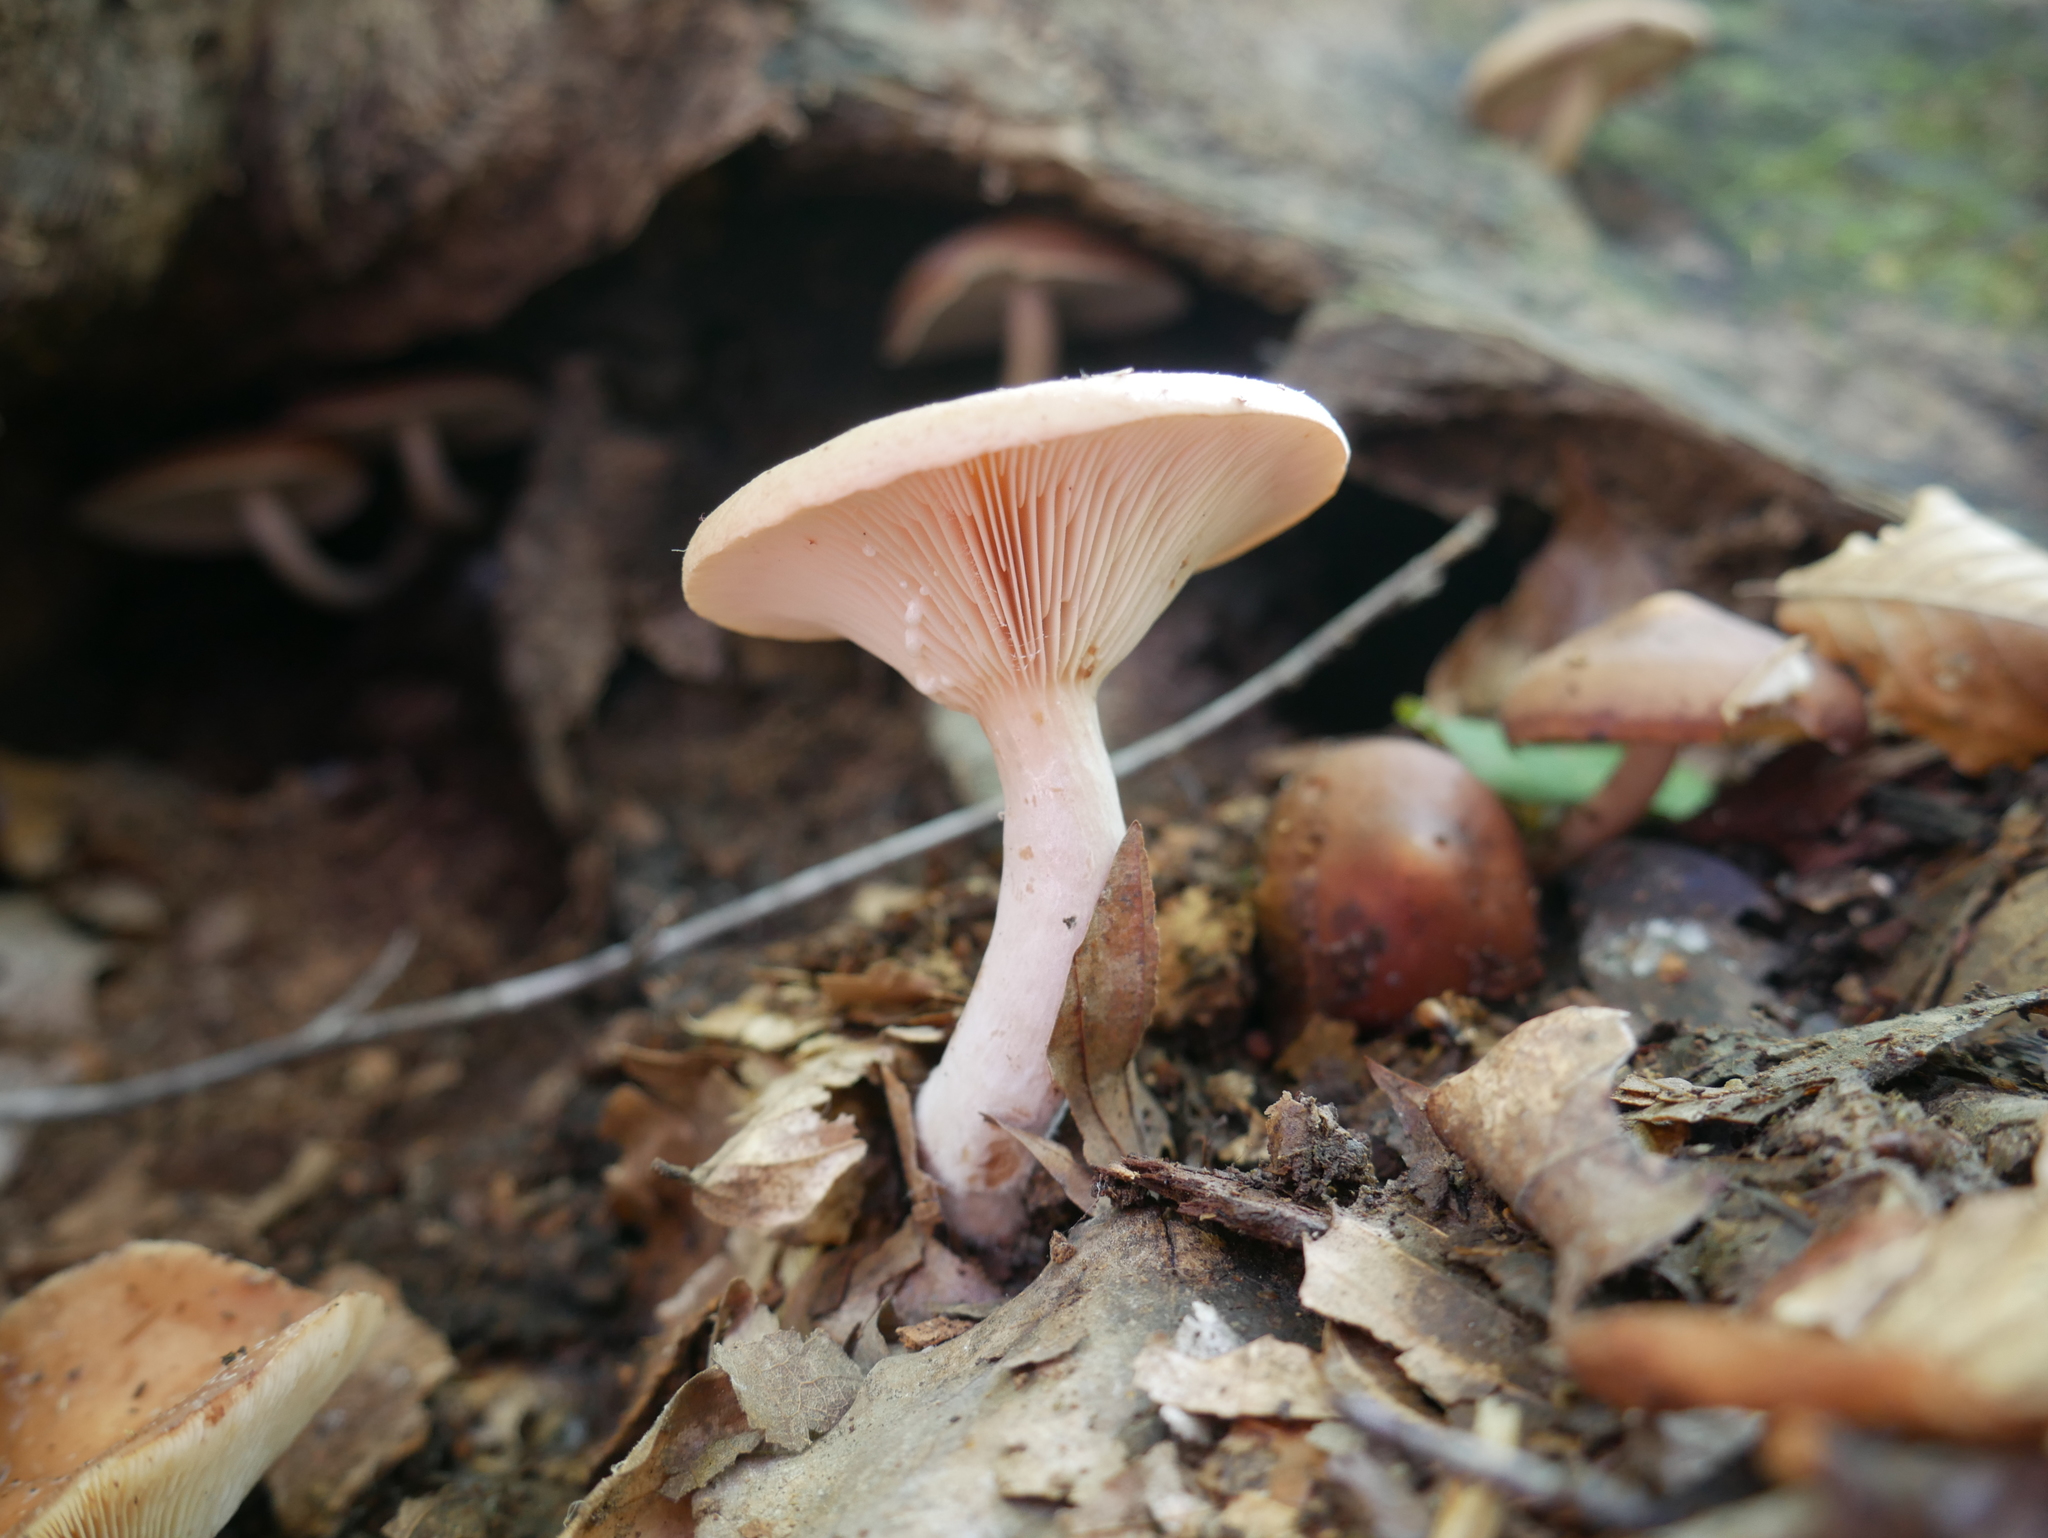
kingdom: Fungi
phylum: Basidiomycota
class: Agaricomycetes
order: Russulales
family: Russulaceae
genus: Lactarius
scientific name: Lactarius imperceptus
